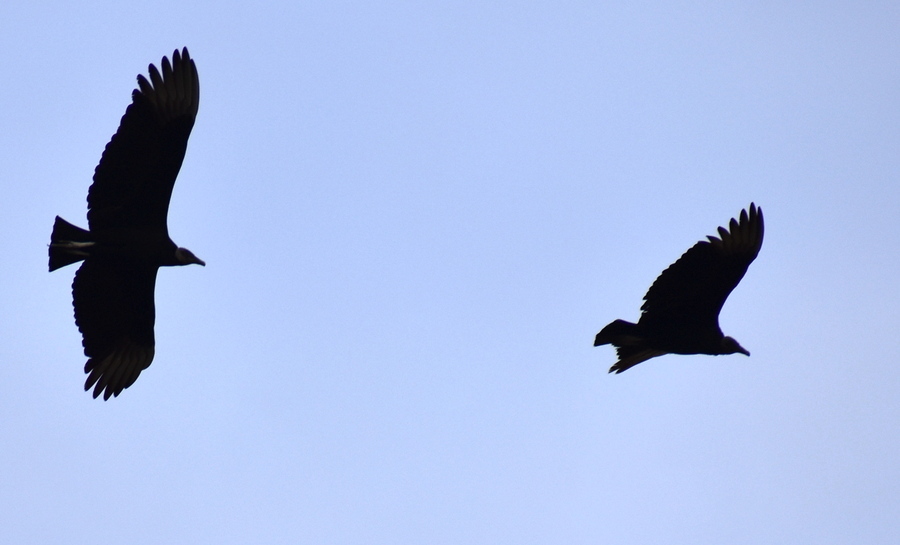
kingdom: Animalia
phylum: Chordata
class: Aves
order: Accipitriformes
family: Cathartidae
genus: Coragyps
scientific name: Coragyps atratus
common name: Black vulture
